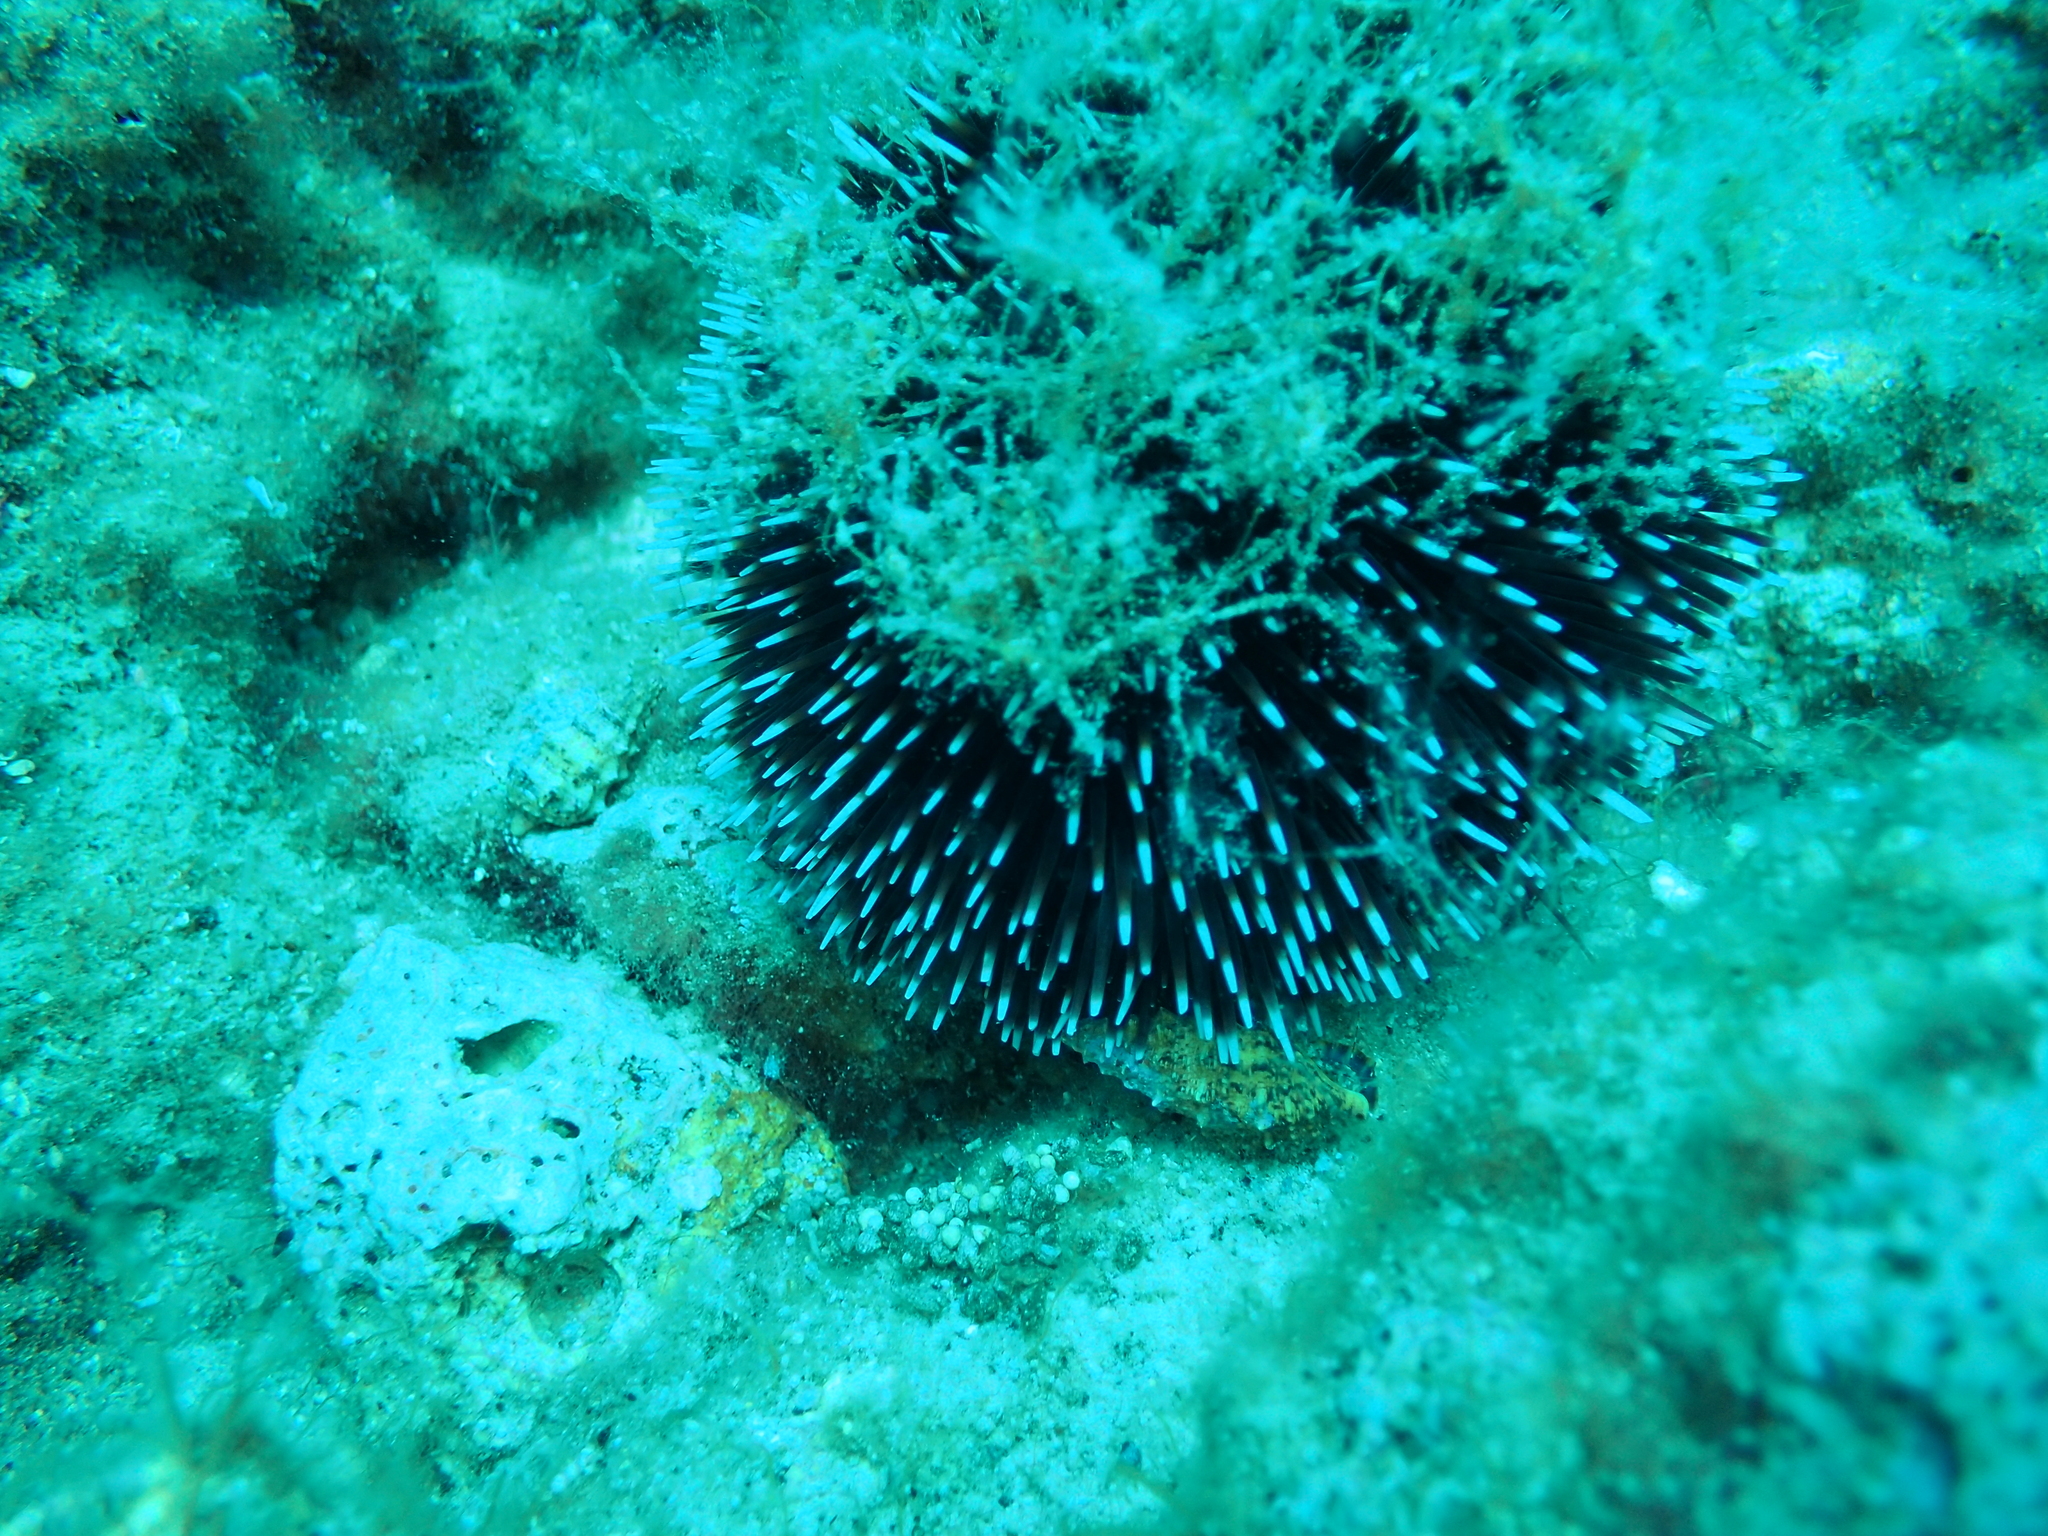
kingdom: Animalia
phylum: Echinodermata
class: Echinoidea
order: Camarodonta
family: Toxopneustidae
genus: Sphaerechinus
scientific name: Sphaerechinus granularis
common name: Violet sea urchin
